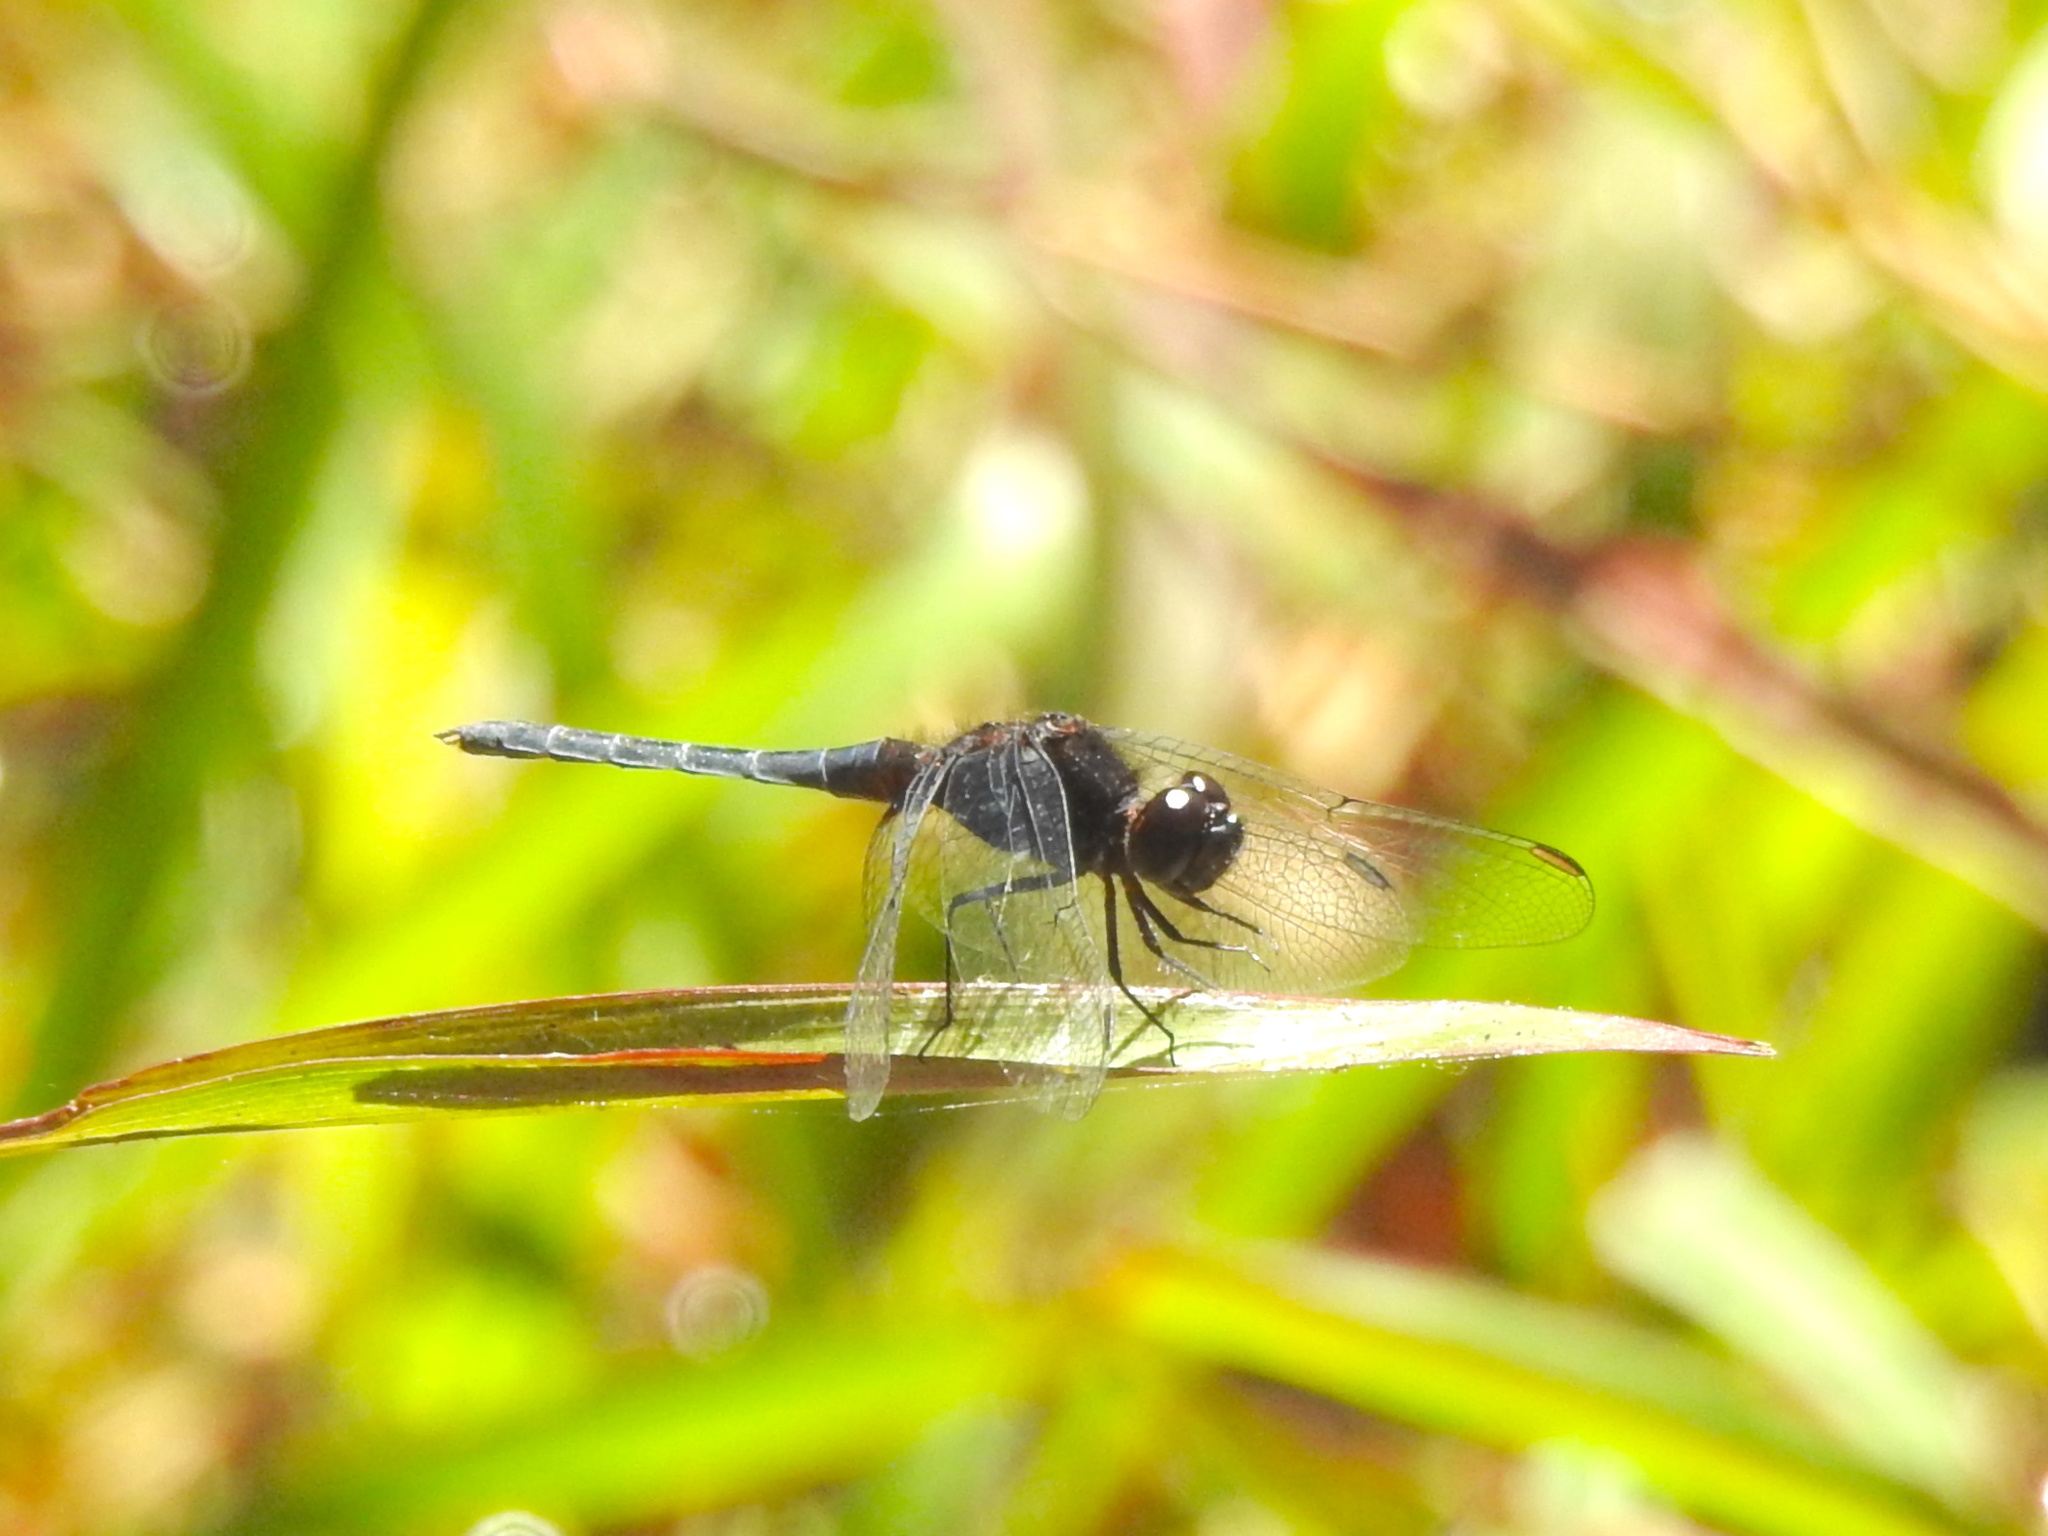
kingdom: Animalia
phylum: Arthropoda
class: Insecta
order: Odonata
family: Libellulidae
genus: Diplacodes
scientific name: Diplacodes lefebvrii
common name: Black percher
